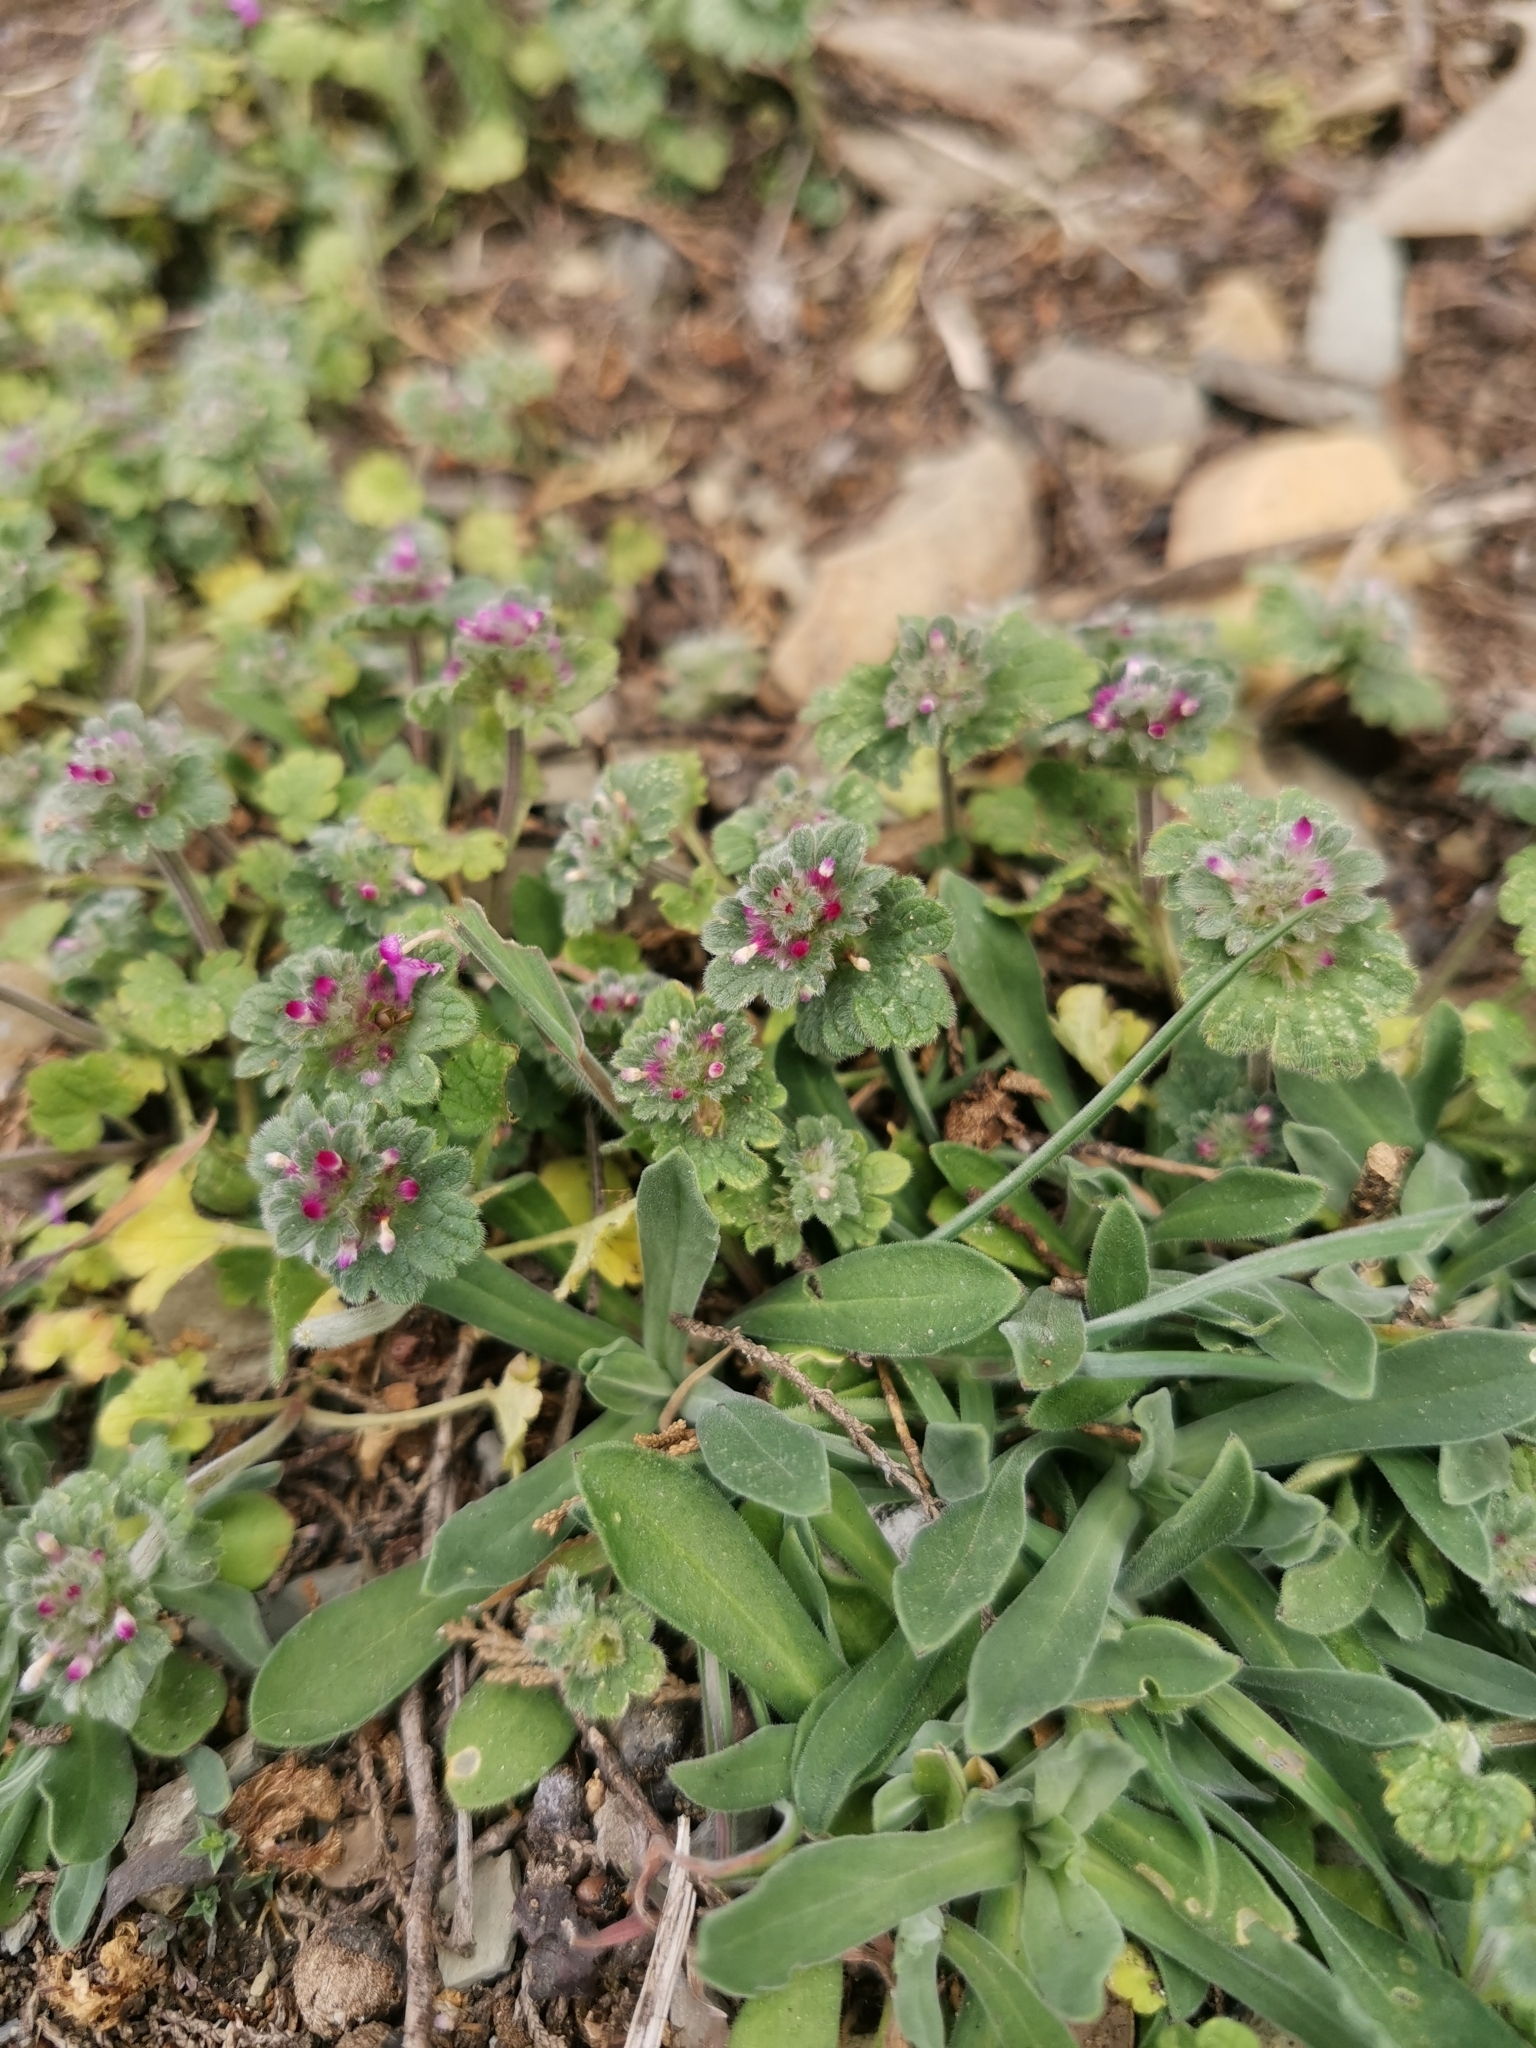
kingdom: Plantae
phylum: Tracheophyta
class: Magnoliopsida
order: Lamiales
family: Lamiaceae
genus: Lamium
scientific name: Lamium amplexicaule
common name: Henbit dead-nettle
